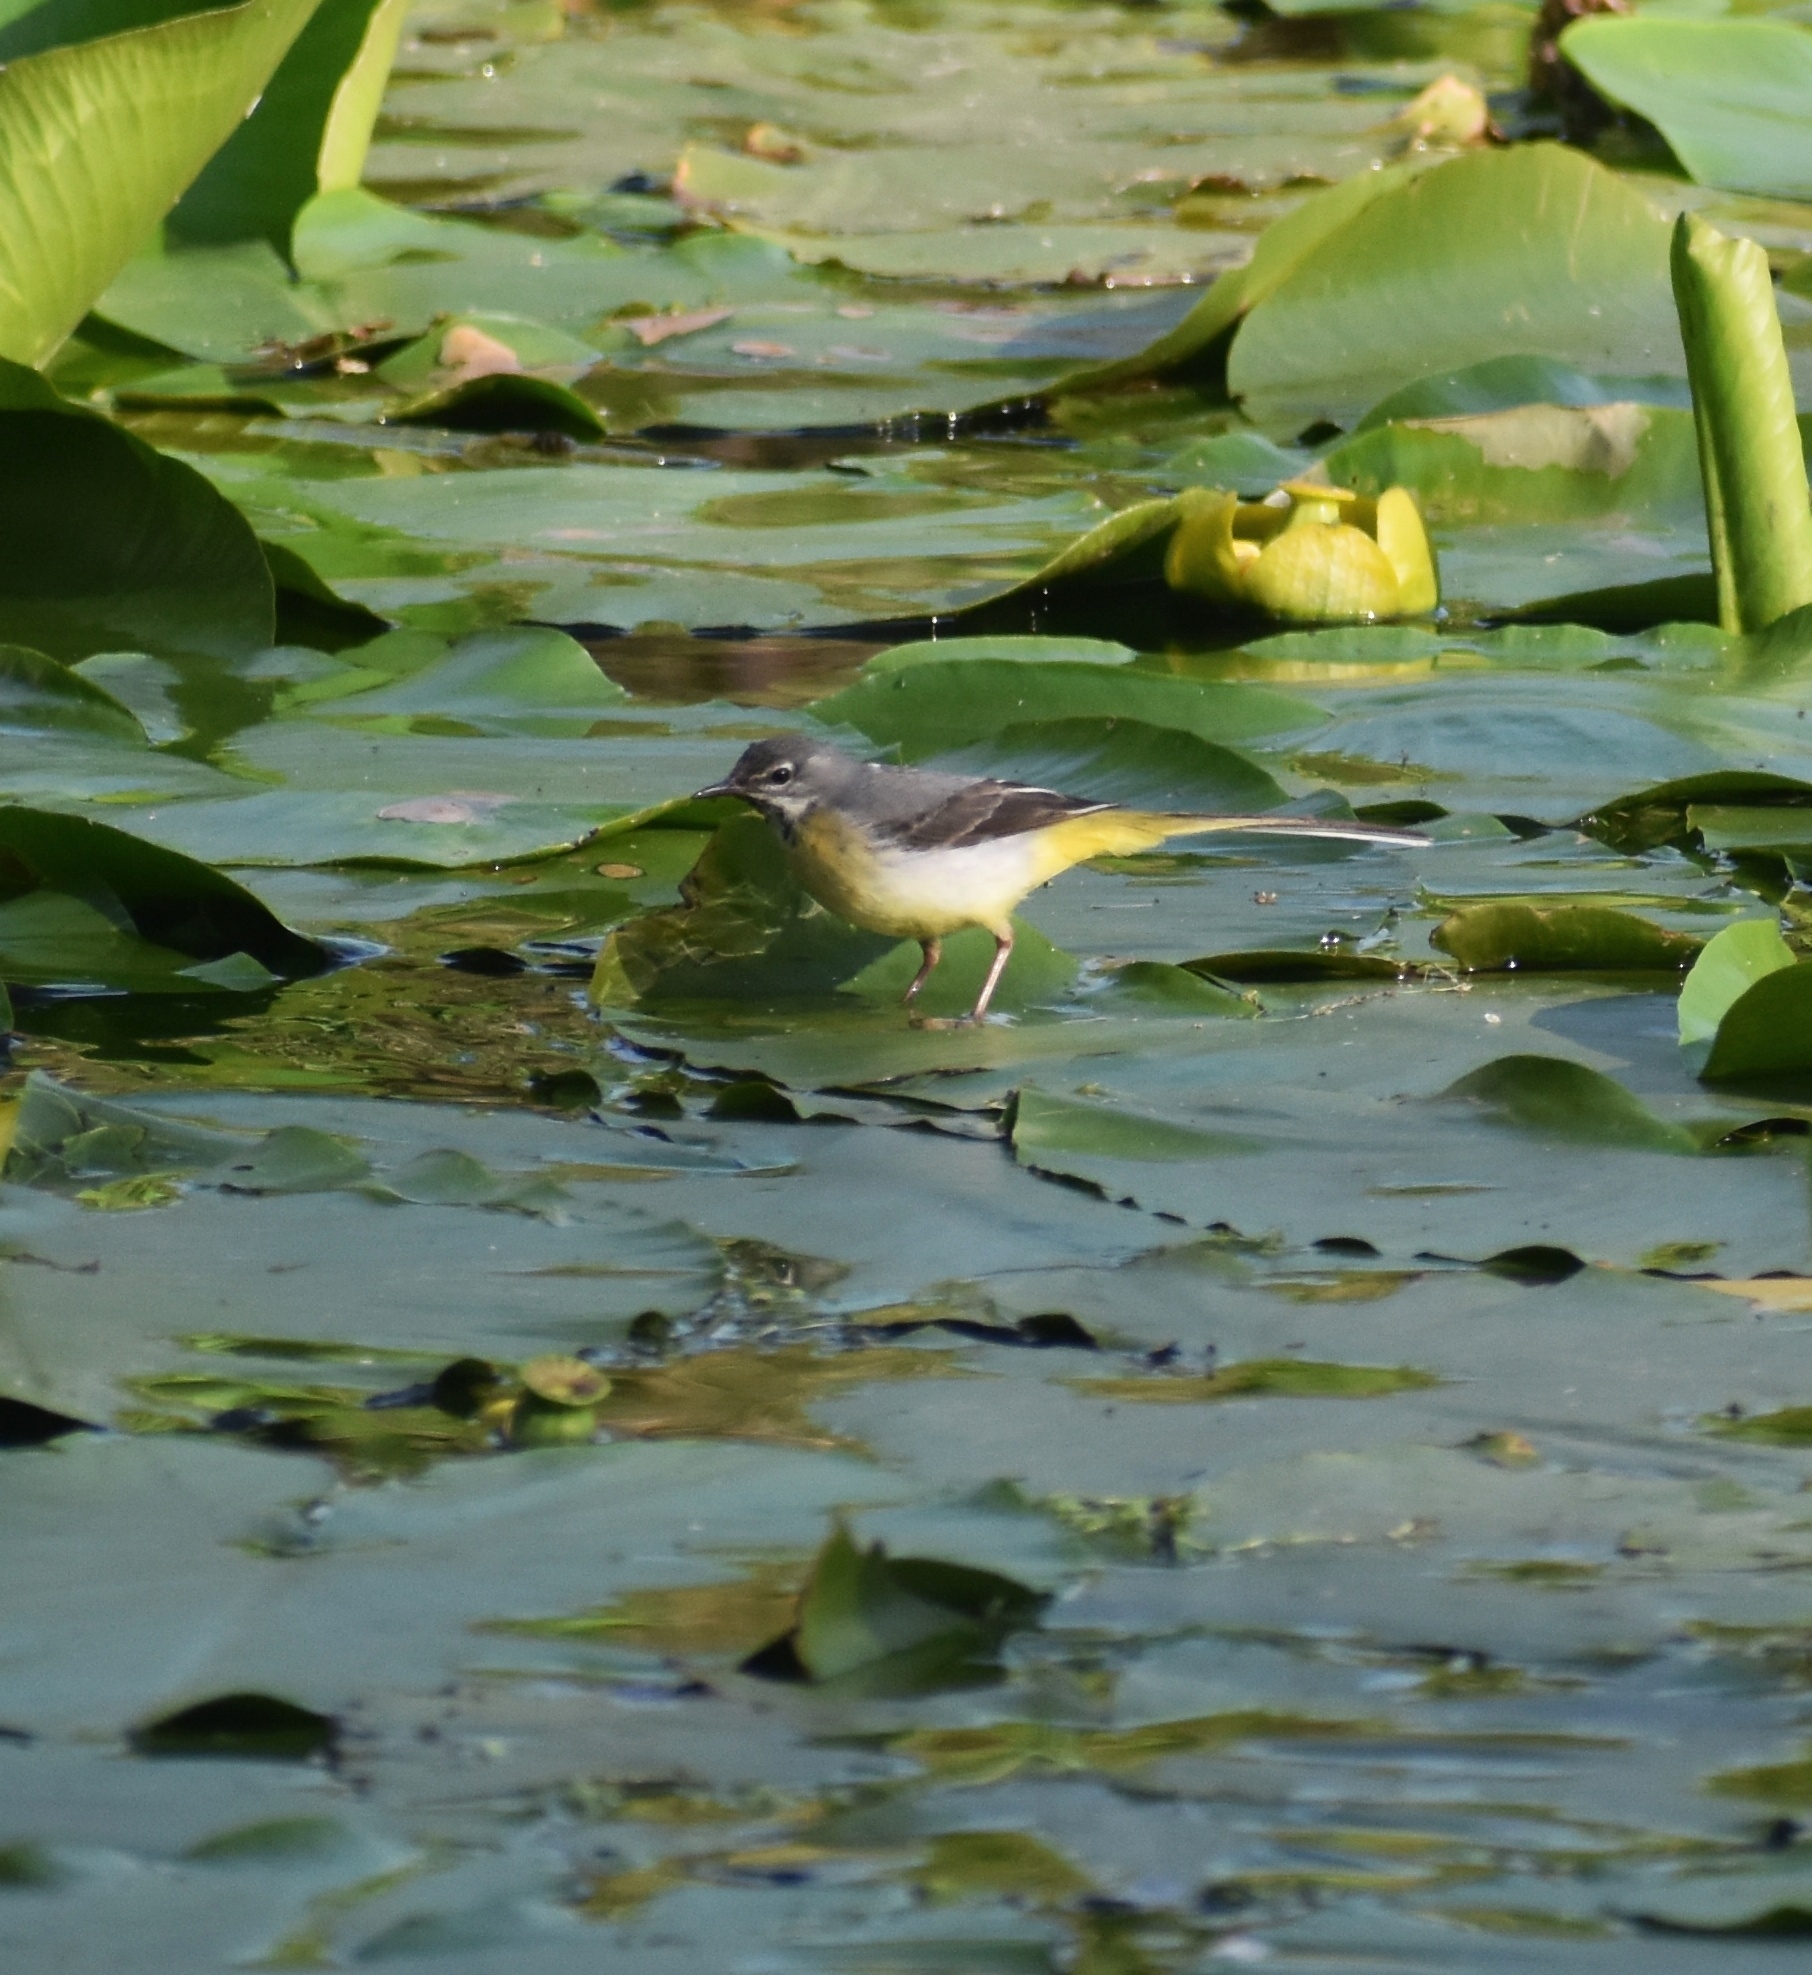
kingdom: Animalia
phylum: Chordata
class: Aves
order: Passeriformes
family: Motacillidae
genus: Motacilla
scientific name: Motacilla cinerea
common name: Grey wagtail
